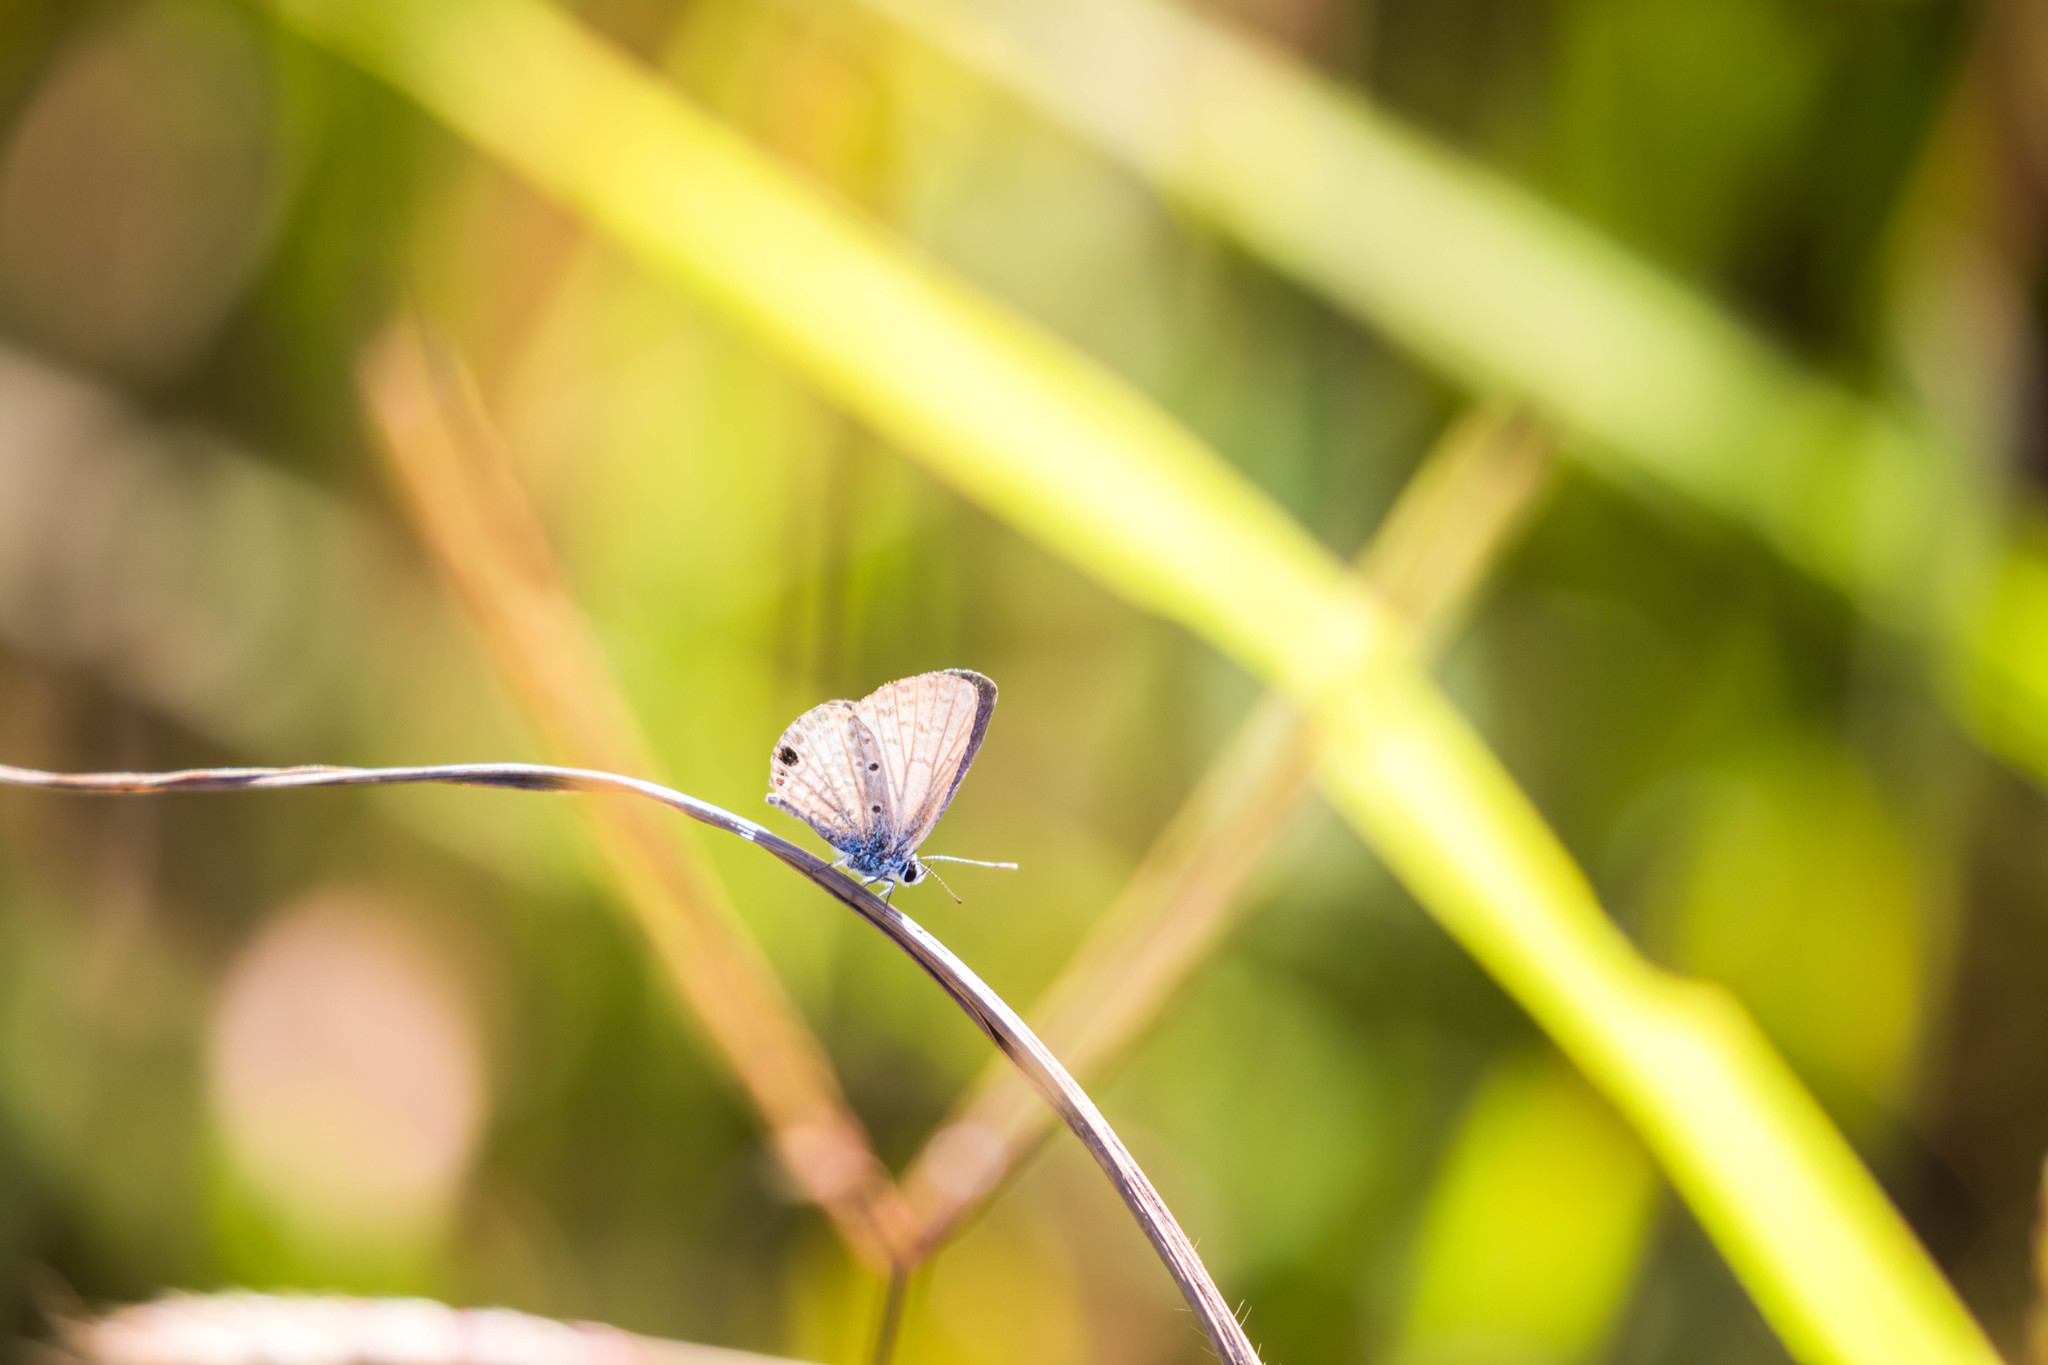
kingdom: Animalia
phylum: Arthropoda
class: Insecta
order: Lepidoptera
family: Lycaenidae
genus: Hemiargus
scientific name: Hemiargus ceraunus
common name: Ceraunus blue
